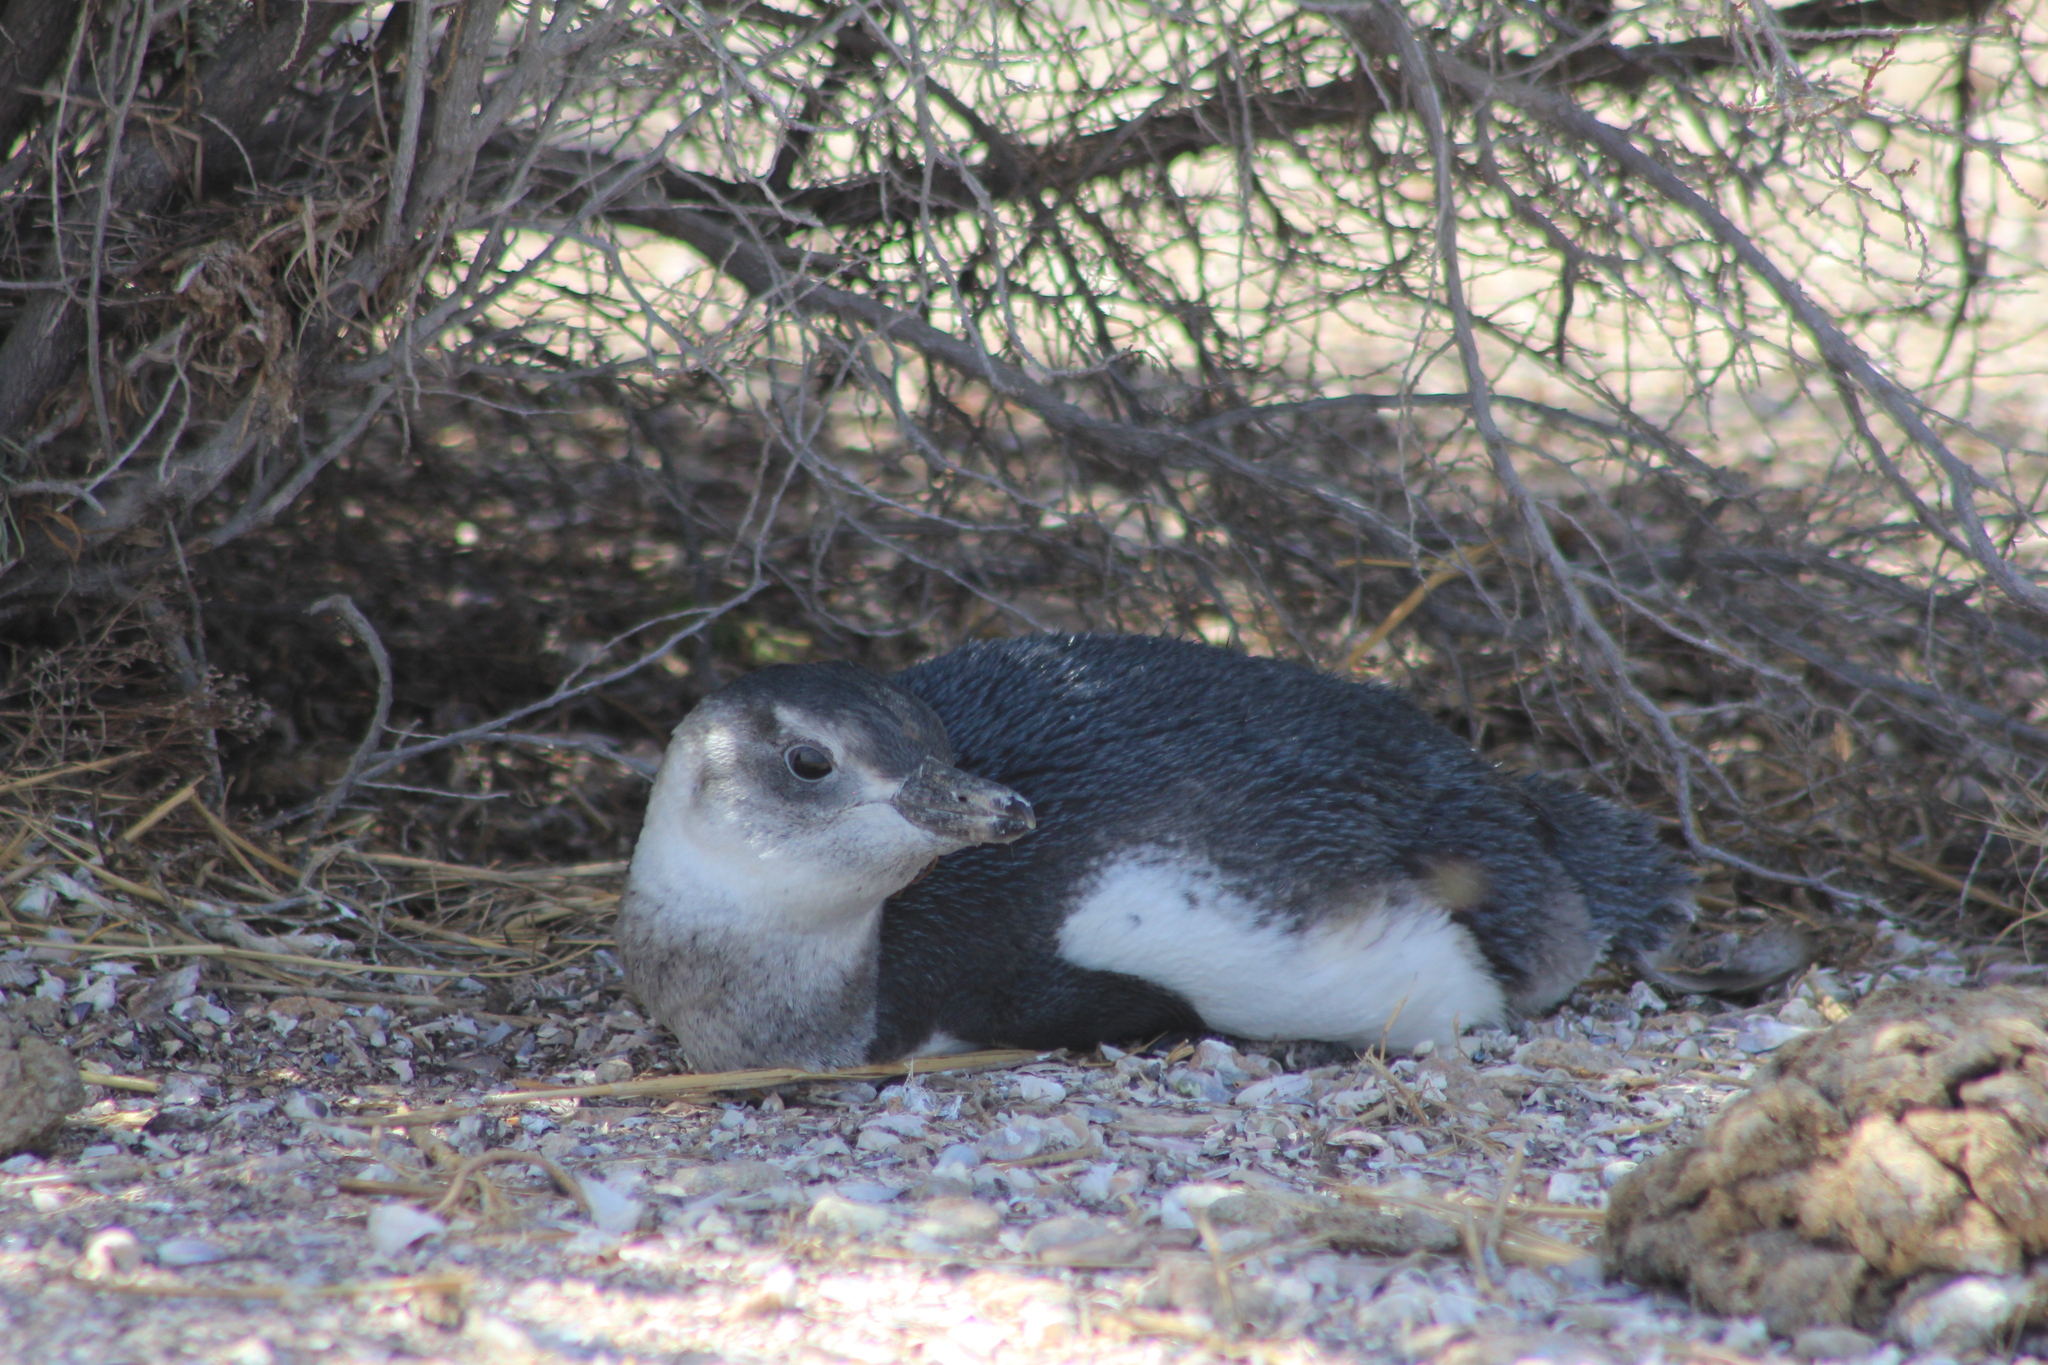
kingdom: Animalia
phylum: Chordata
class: Aves
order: Sphenisciformes
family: Spheniscidae
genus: Spheniscus
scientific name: Spheniscus magellanicus
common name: Magellanic penguin
